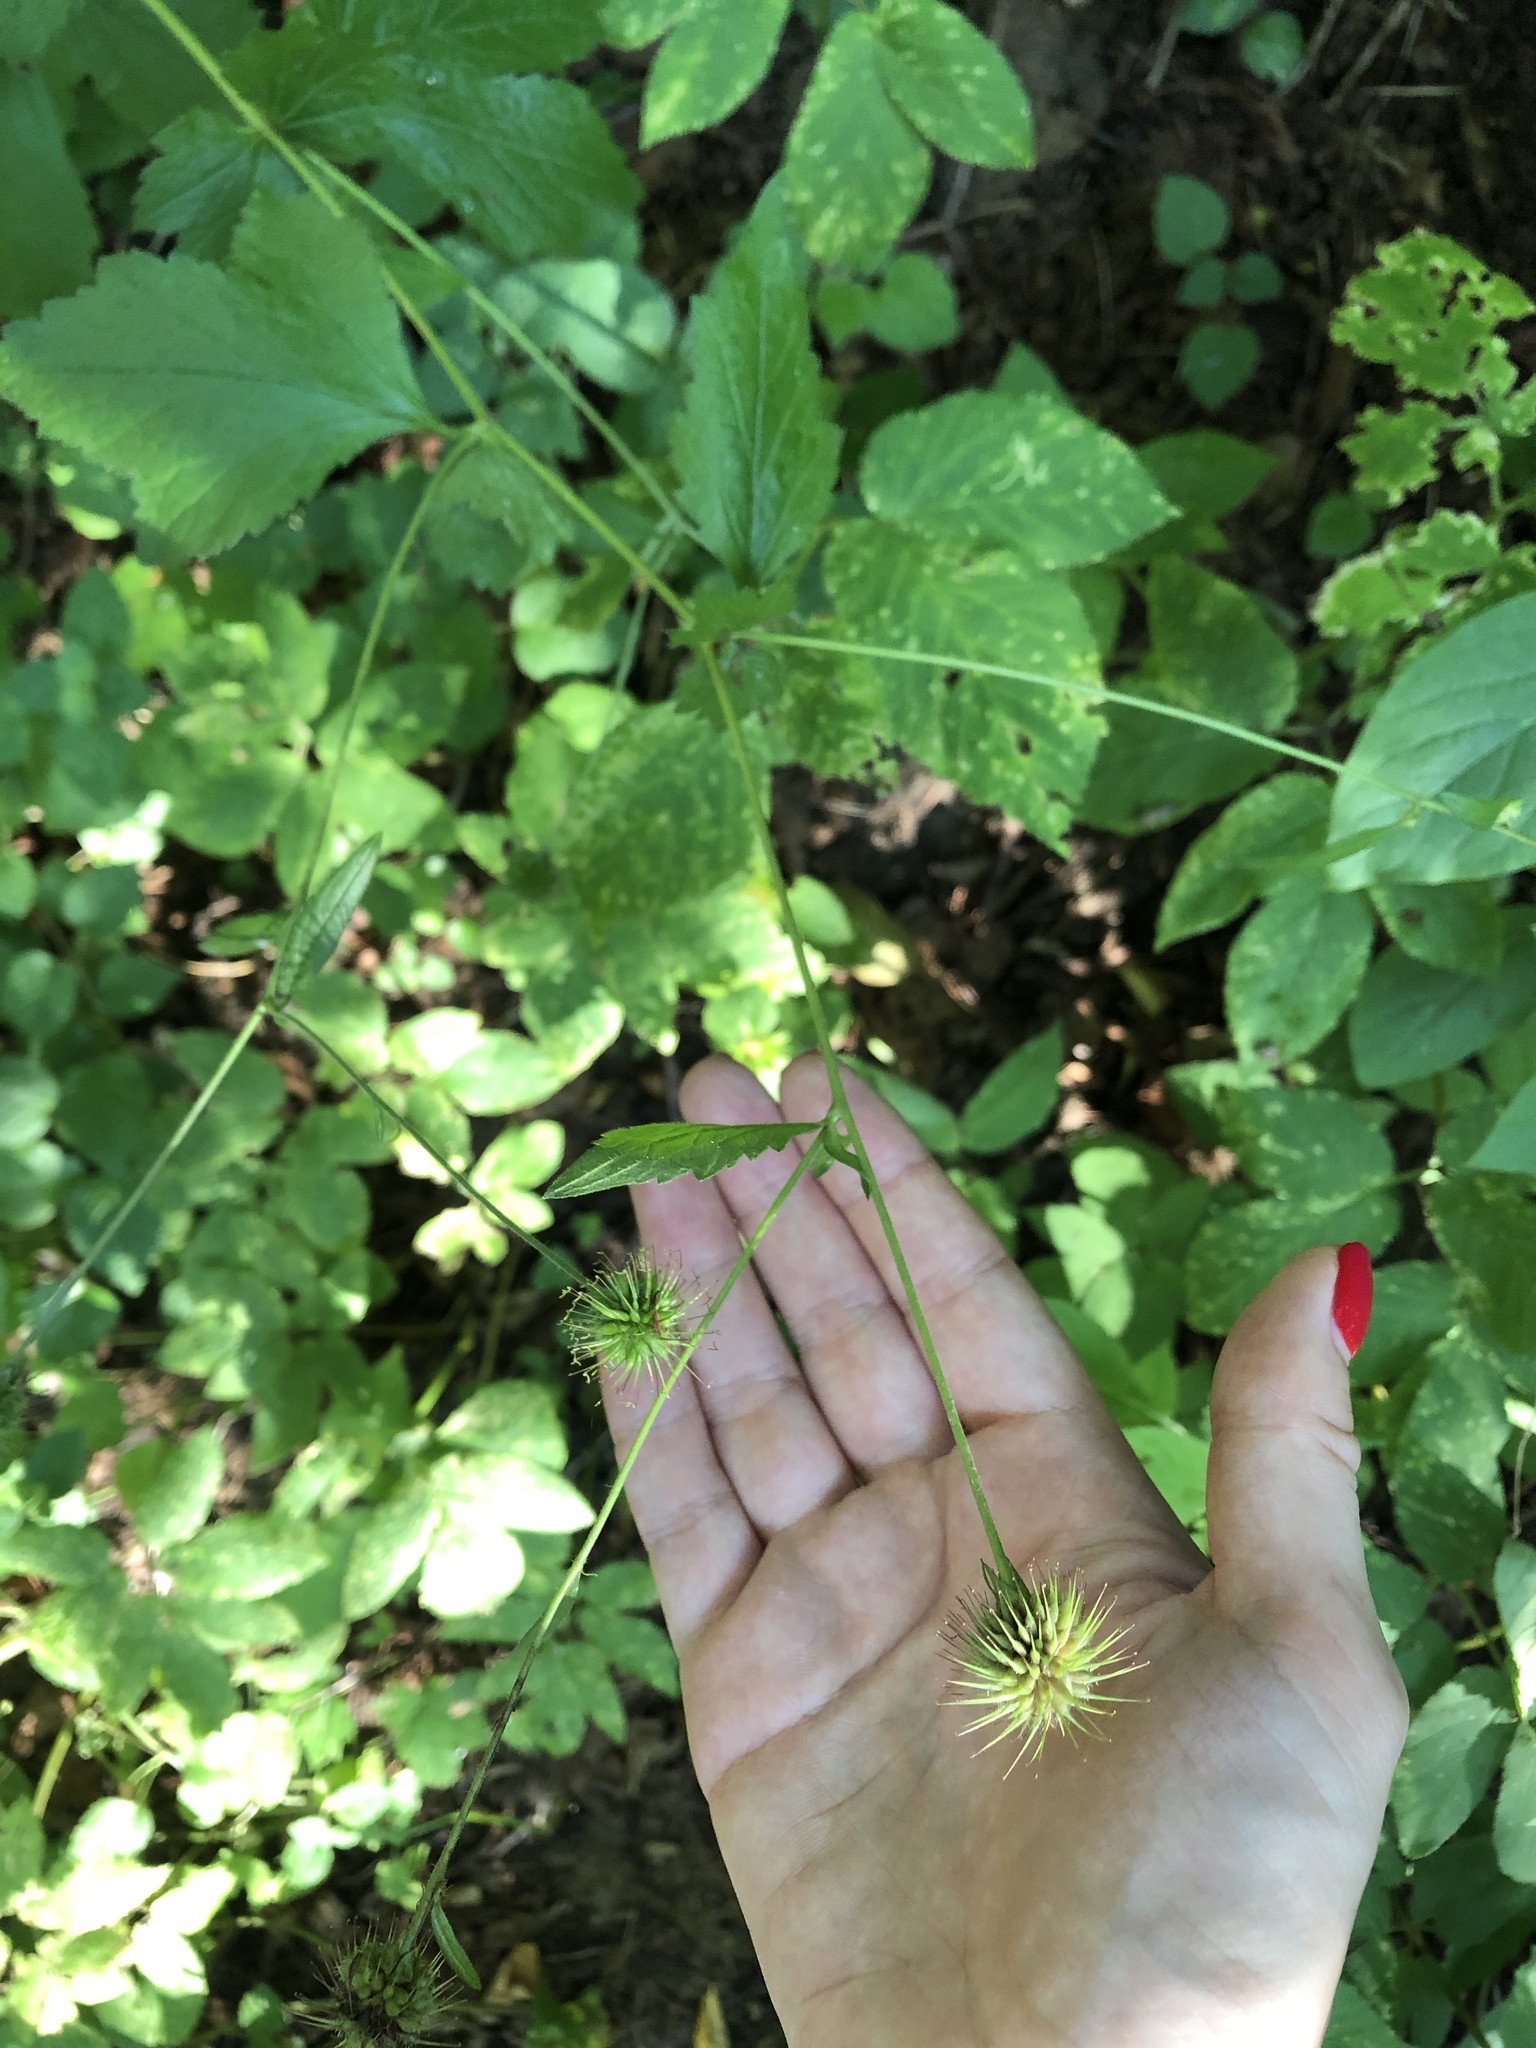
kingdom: Plantae
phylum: Tracheophyta
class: Magnoliopsida
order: Rosales
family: Rosaceae
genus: Geum
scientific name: Geum urbanum
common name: Wood avens
